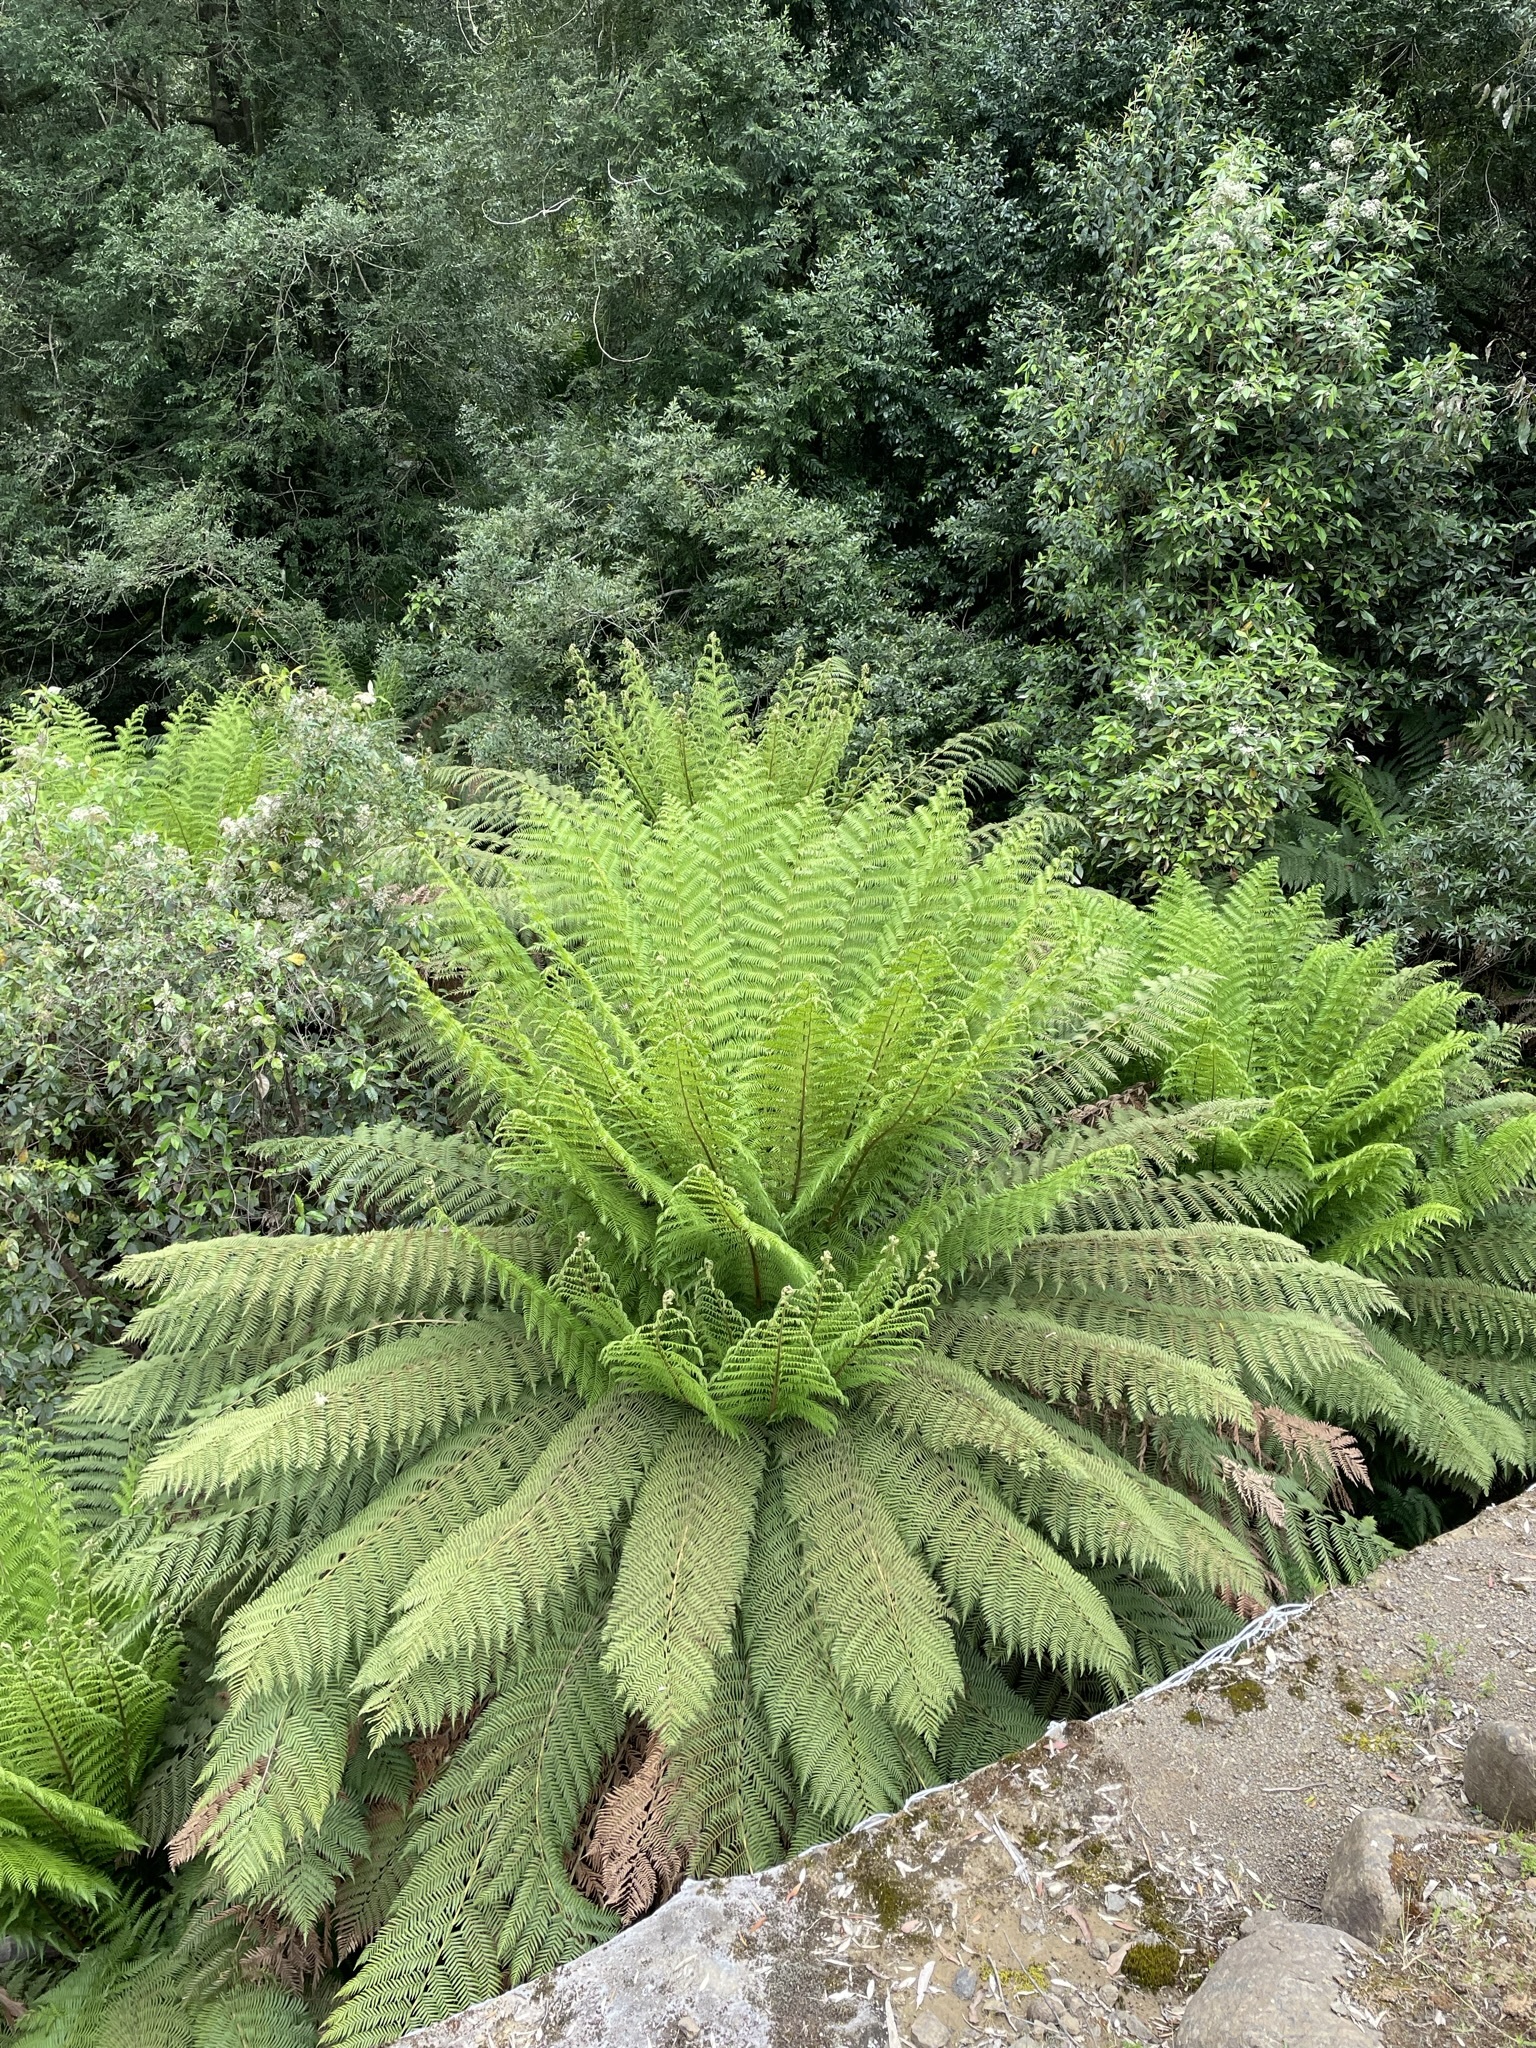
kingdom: Plantae
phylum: Tracheophyta
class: Polypodiopsida
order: Cyatheales
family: Dicksoniaceae
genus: Dicksonia
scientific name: Dicksonia antarctica
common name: Australian treefern
